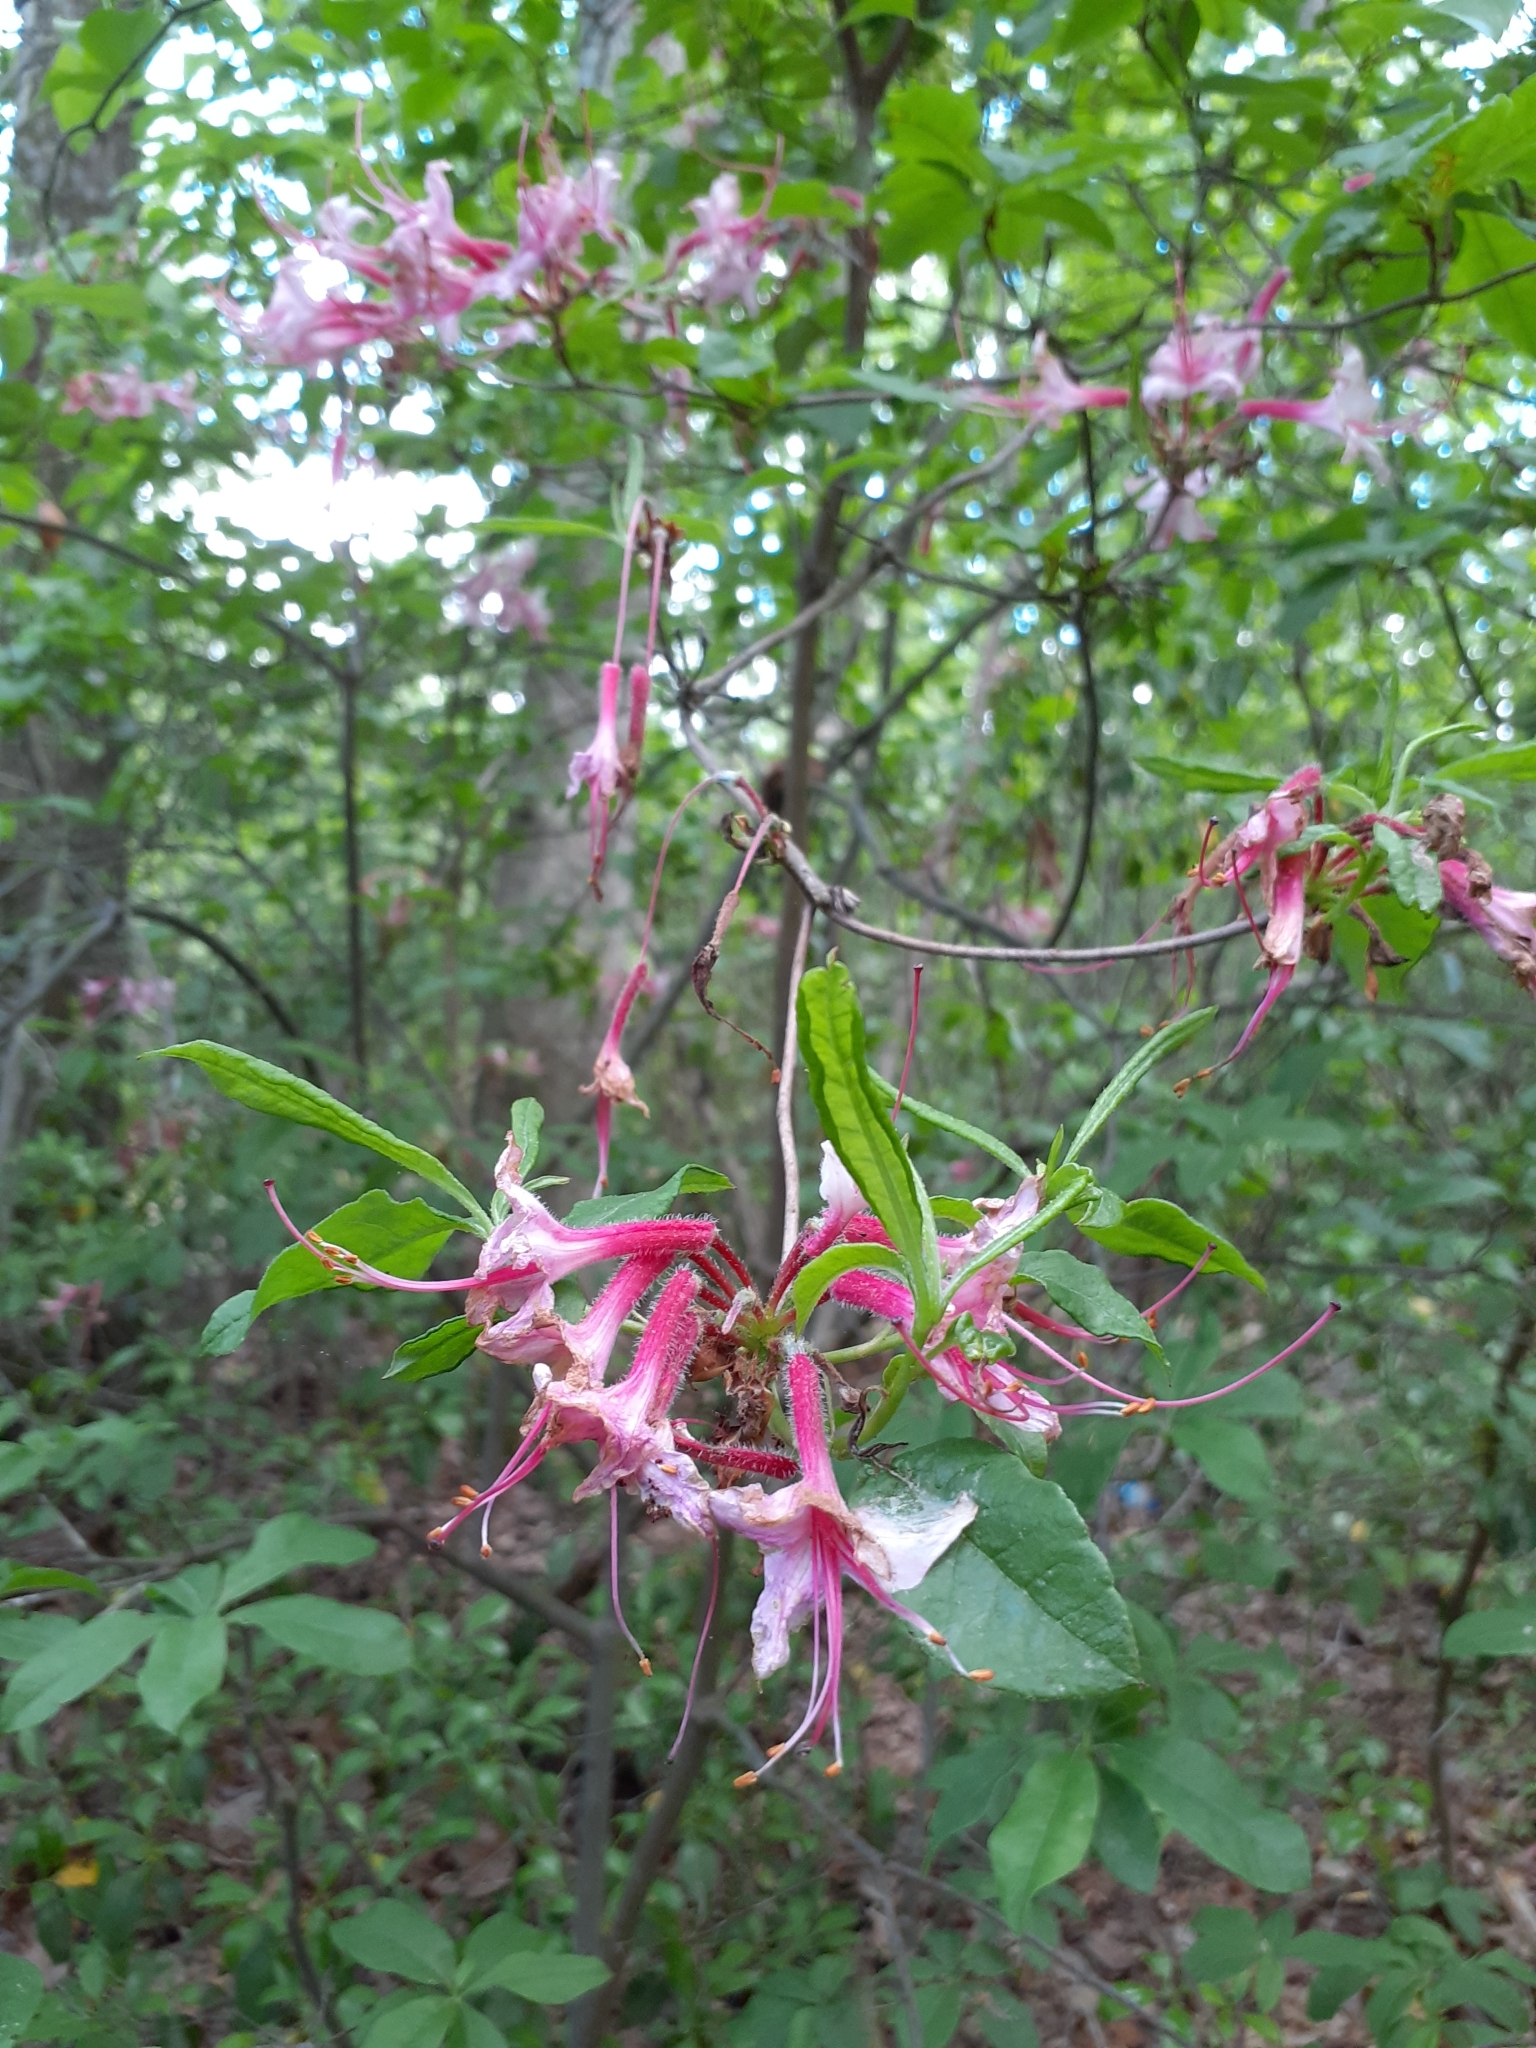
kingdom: Plantae
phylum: Tracheophyta
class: Magnoliopsida
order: Ericales
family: Ericaceae
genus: Rhododendron
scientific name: Rhododendron periclymenoides
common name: Election-pink
